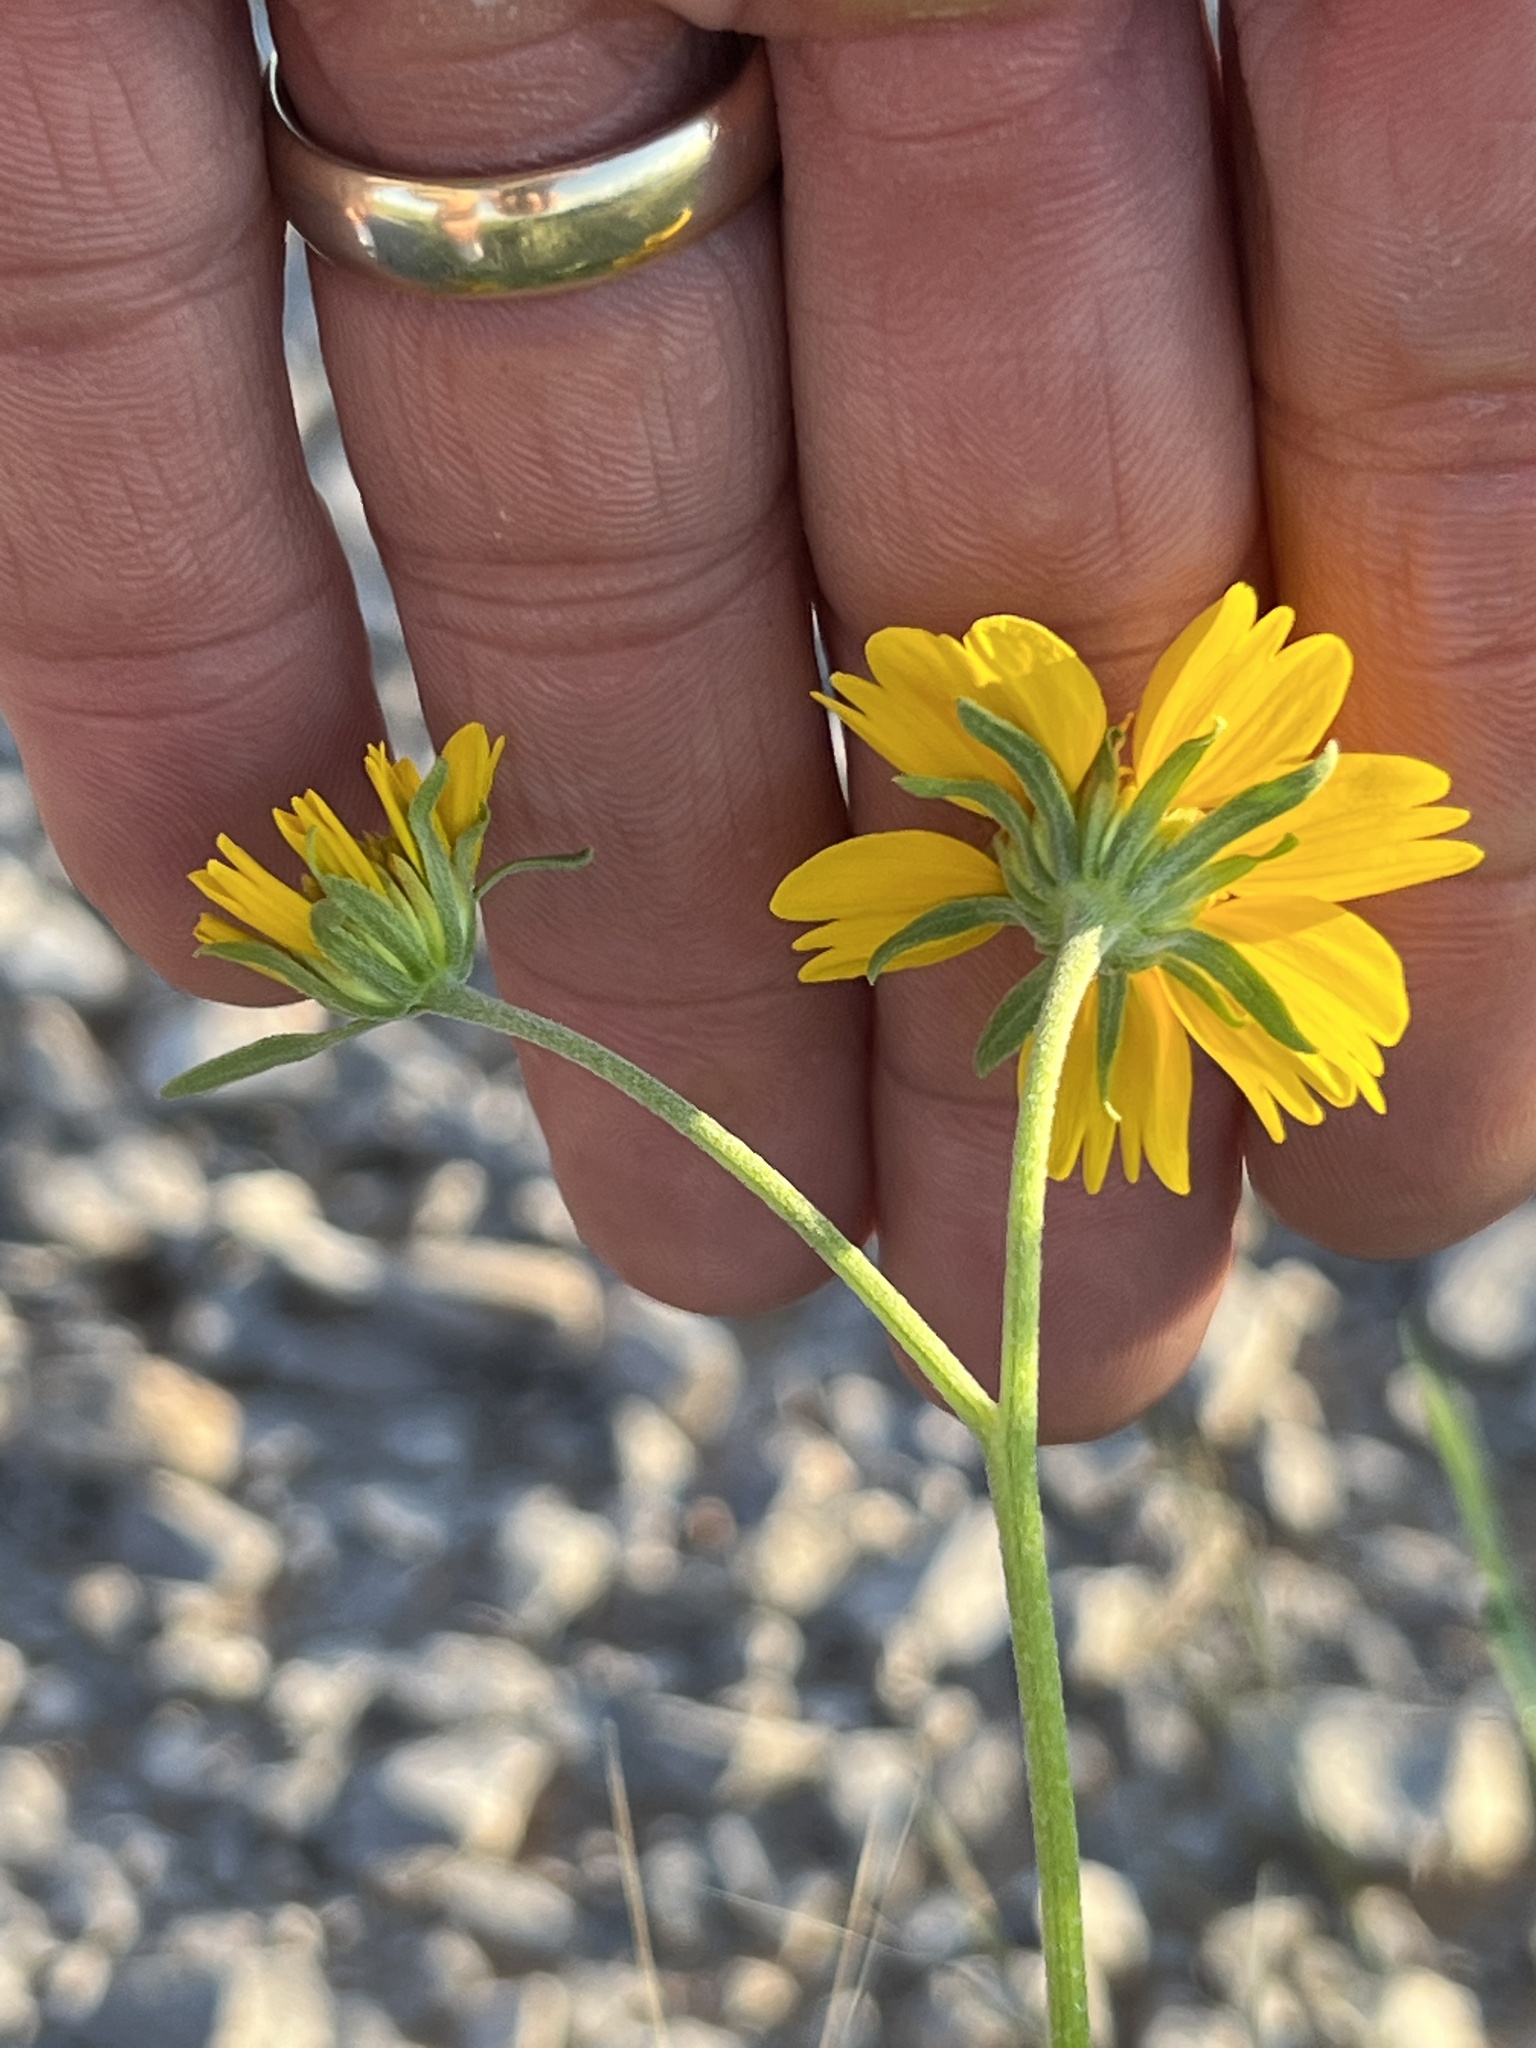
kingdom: Plantae
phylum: Tracheophyta
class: Magnoliopsida
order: Asterales
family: Asteraceae
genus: Verbesina
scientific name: Verbesina encelioides
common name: Golden crownbeard
